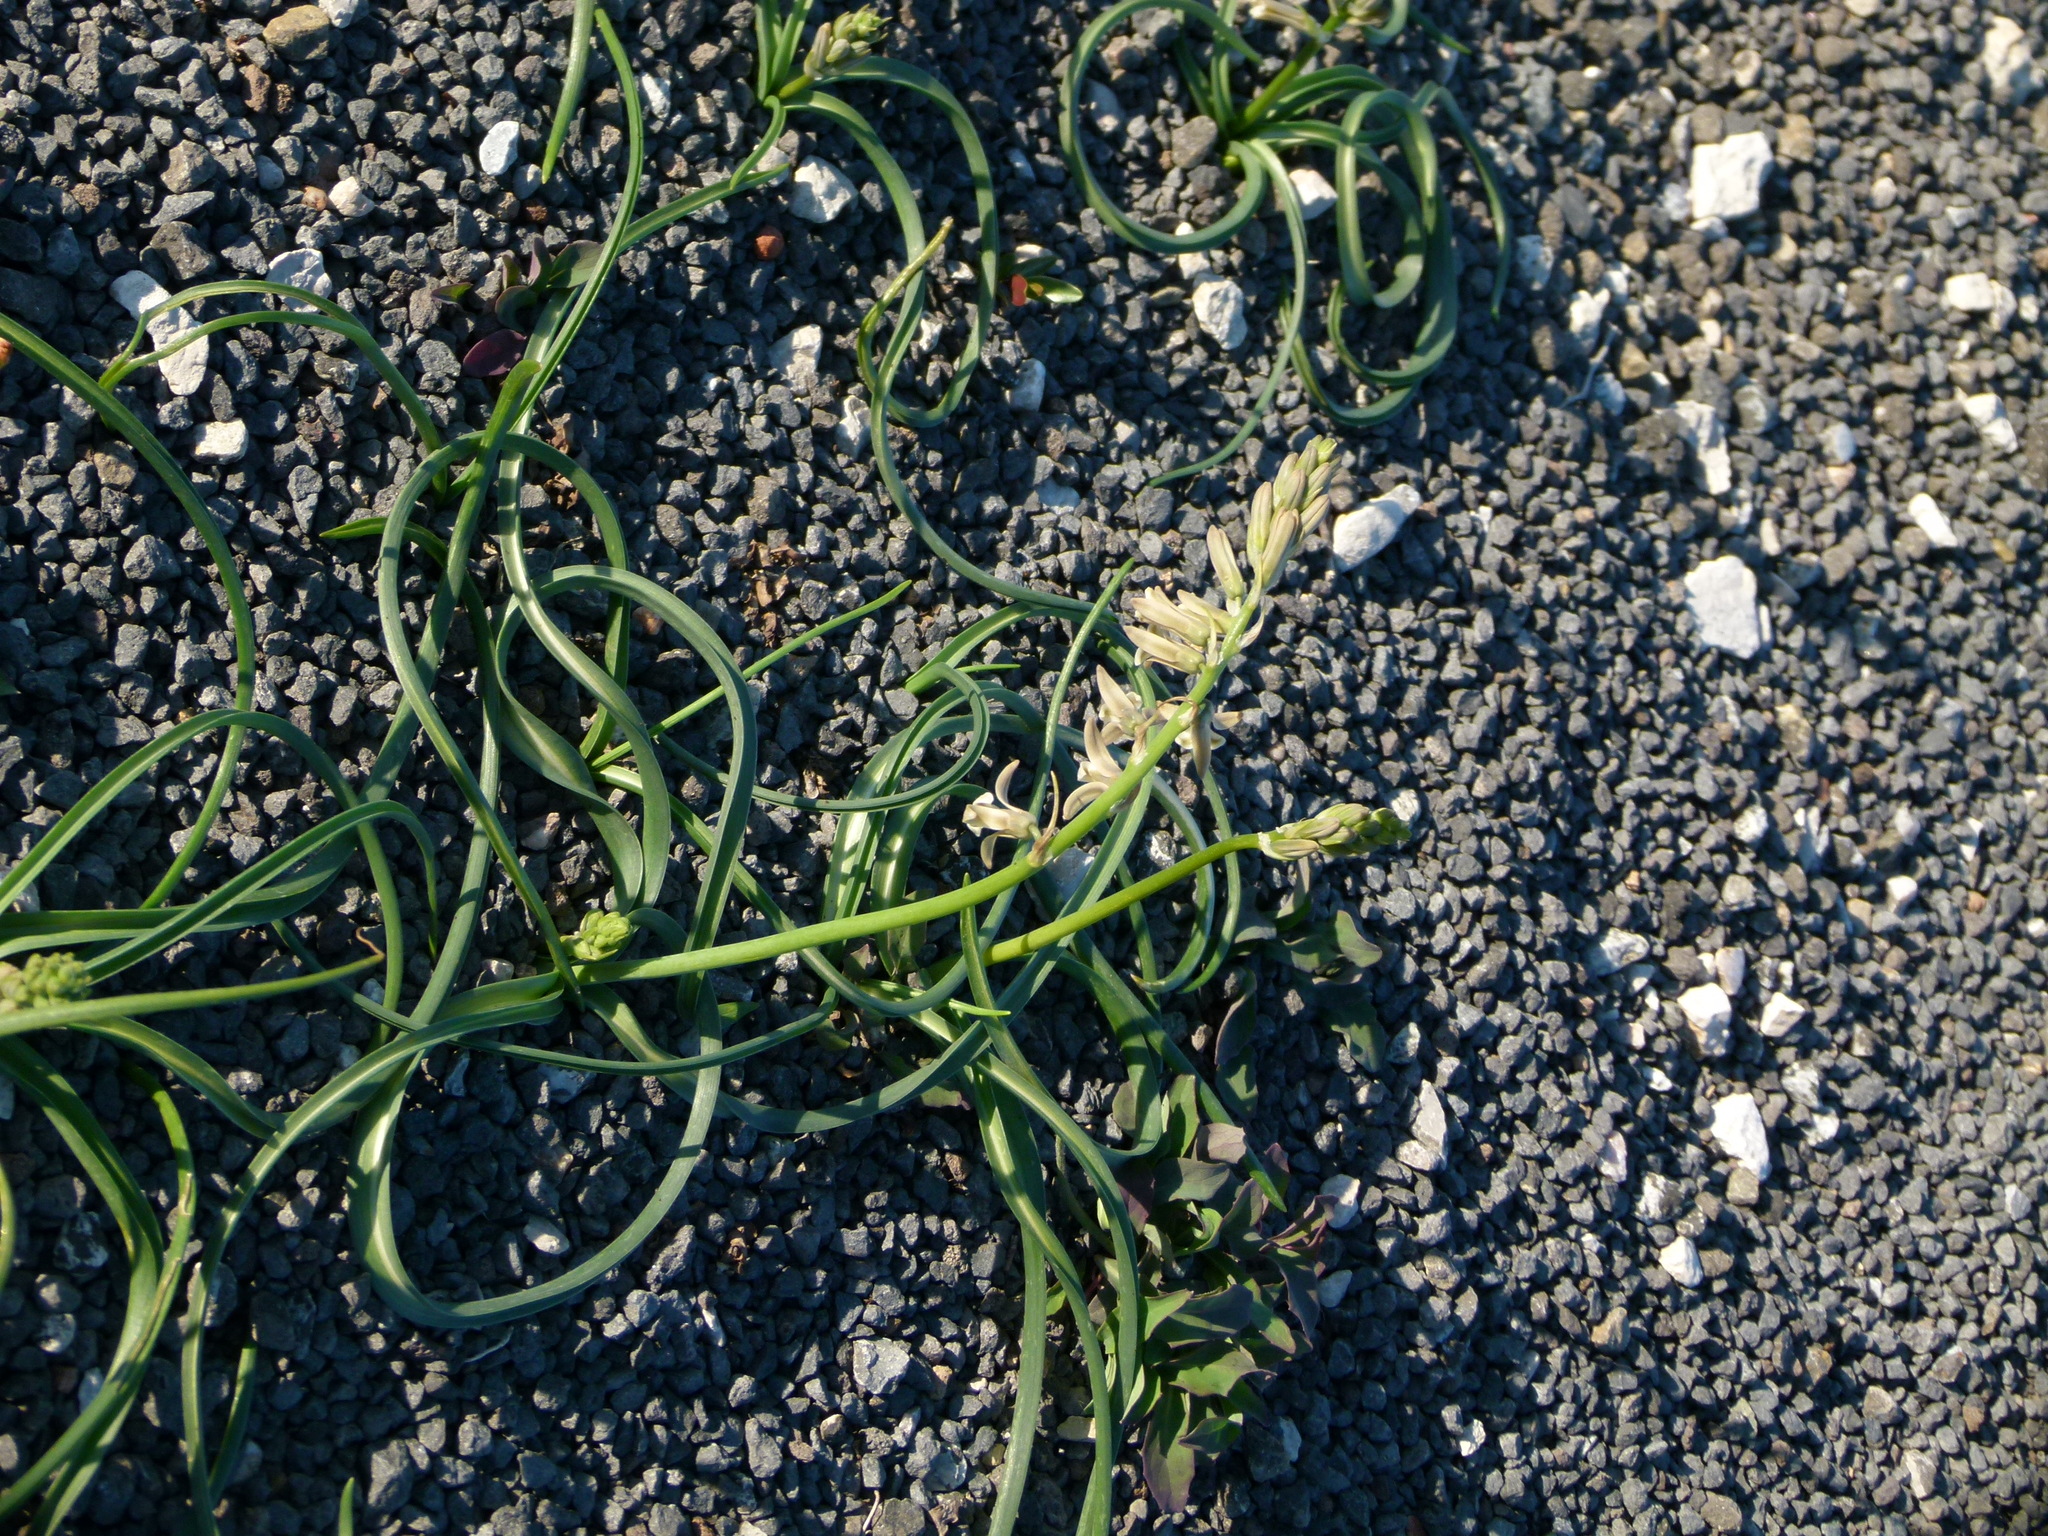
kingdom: Plantae
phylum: Tracheophyta
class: Liliopsida
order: Asparagales
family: Asparagaceae
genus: Dipcadi
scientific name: Dipcadi serotinum
